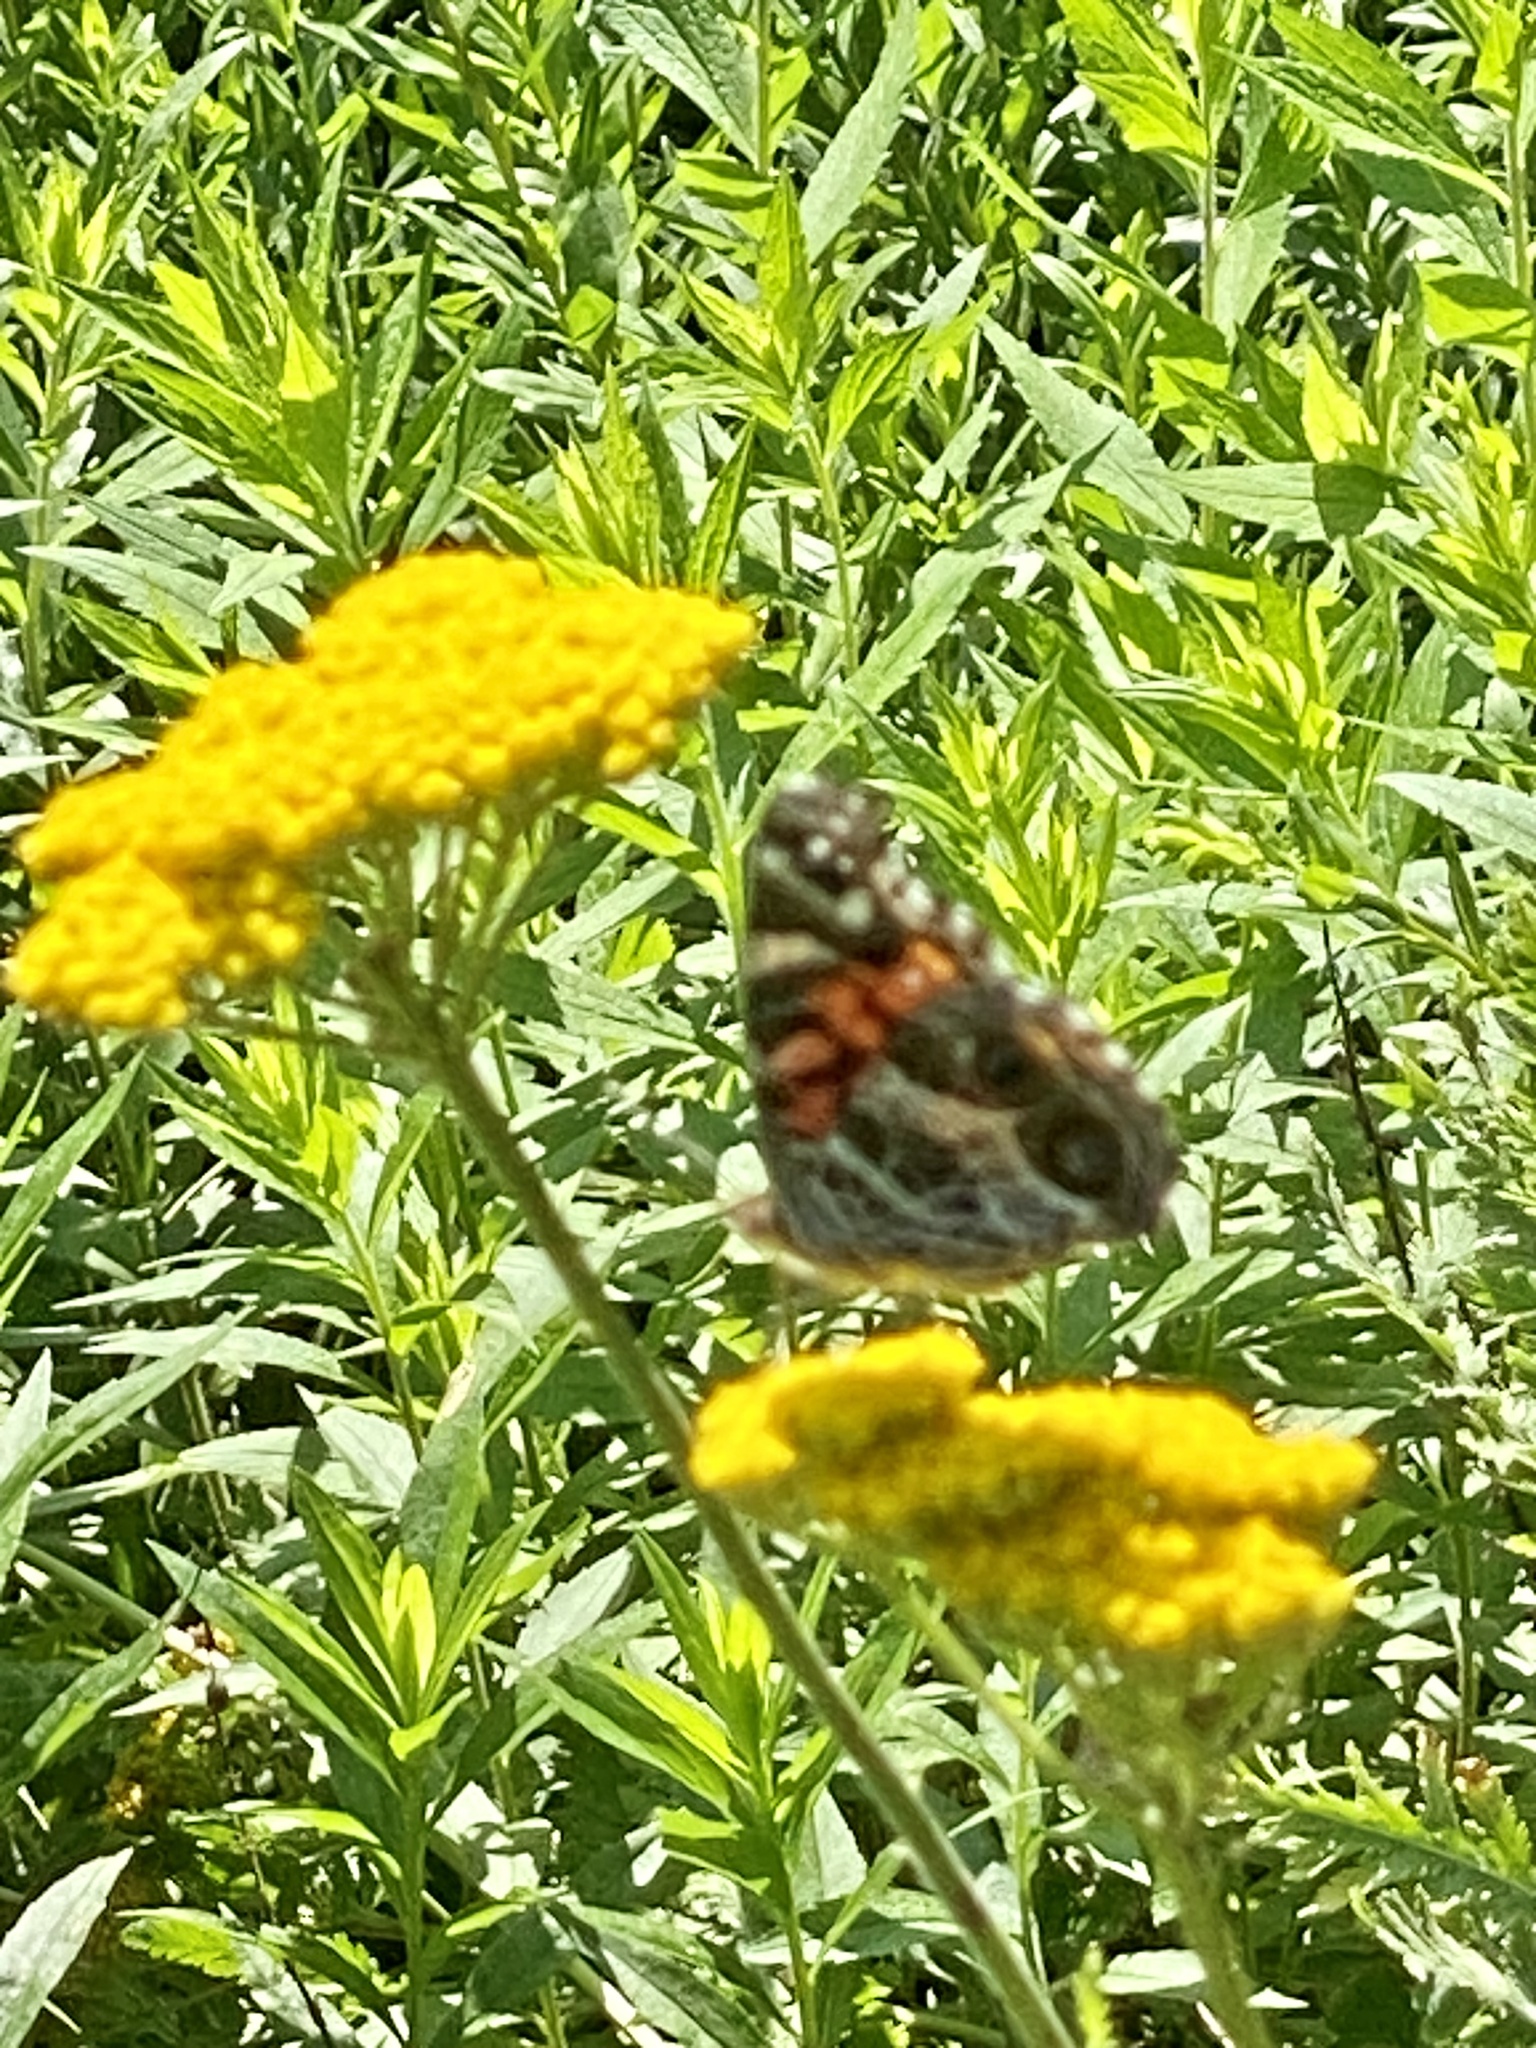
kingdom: Animalia
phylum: Arthropoda
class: Insecta
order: Lepidoptera
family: Nymphalidae
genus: Vanessa
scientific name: Vanessa virginiensis
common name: American lady
